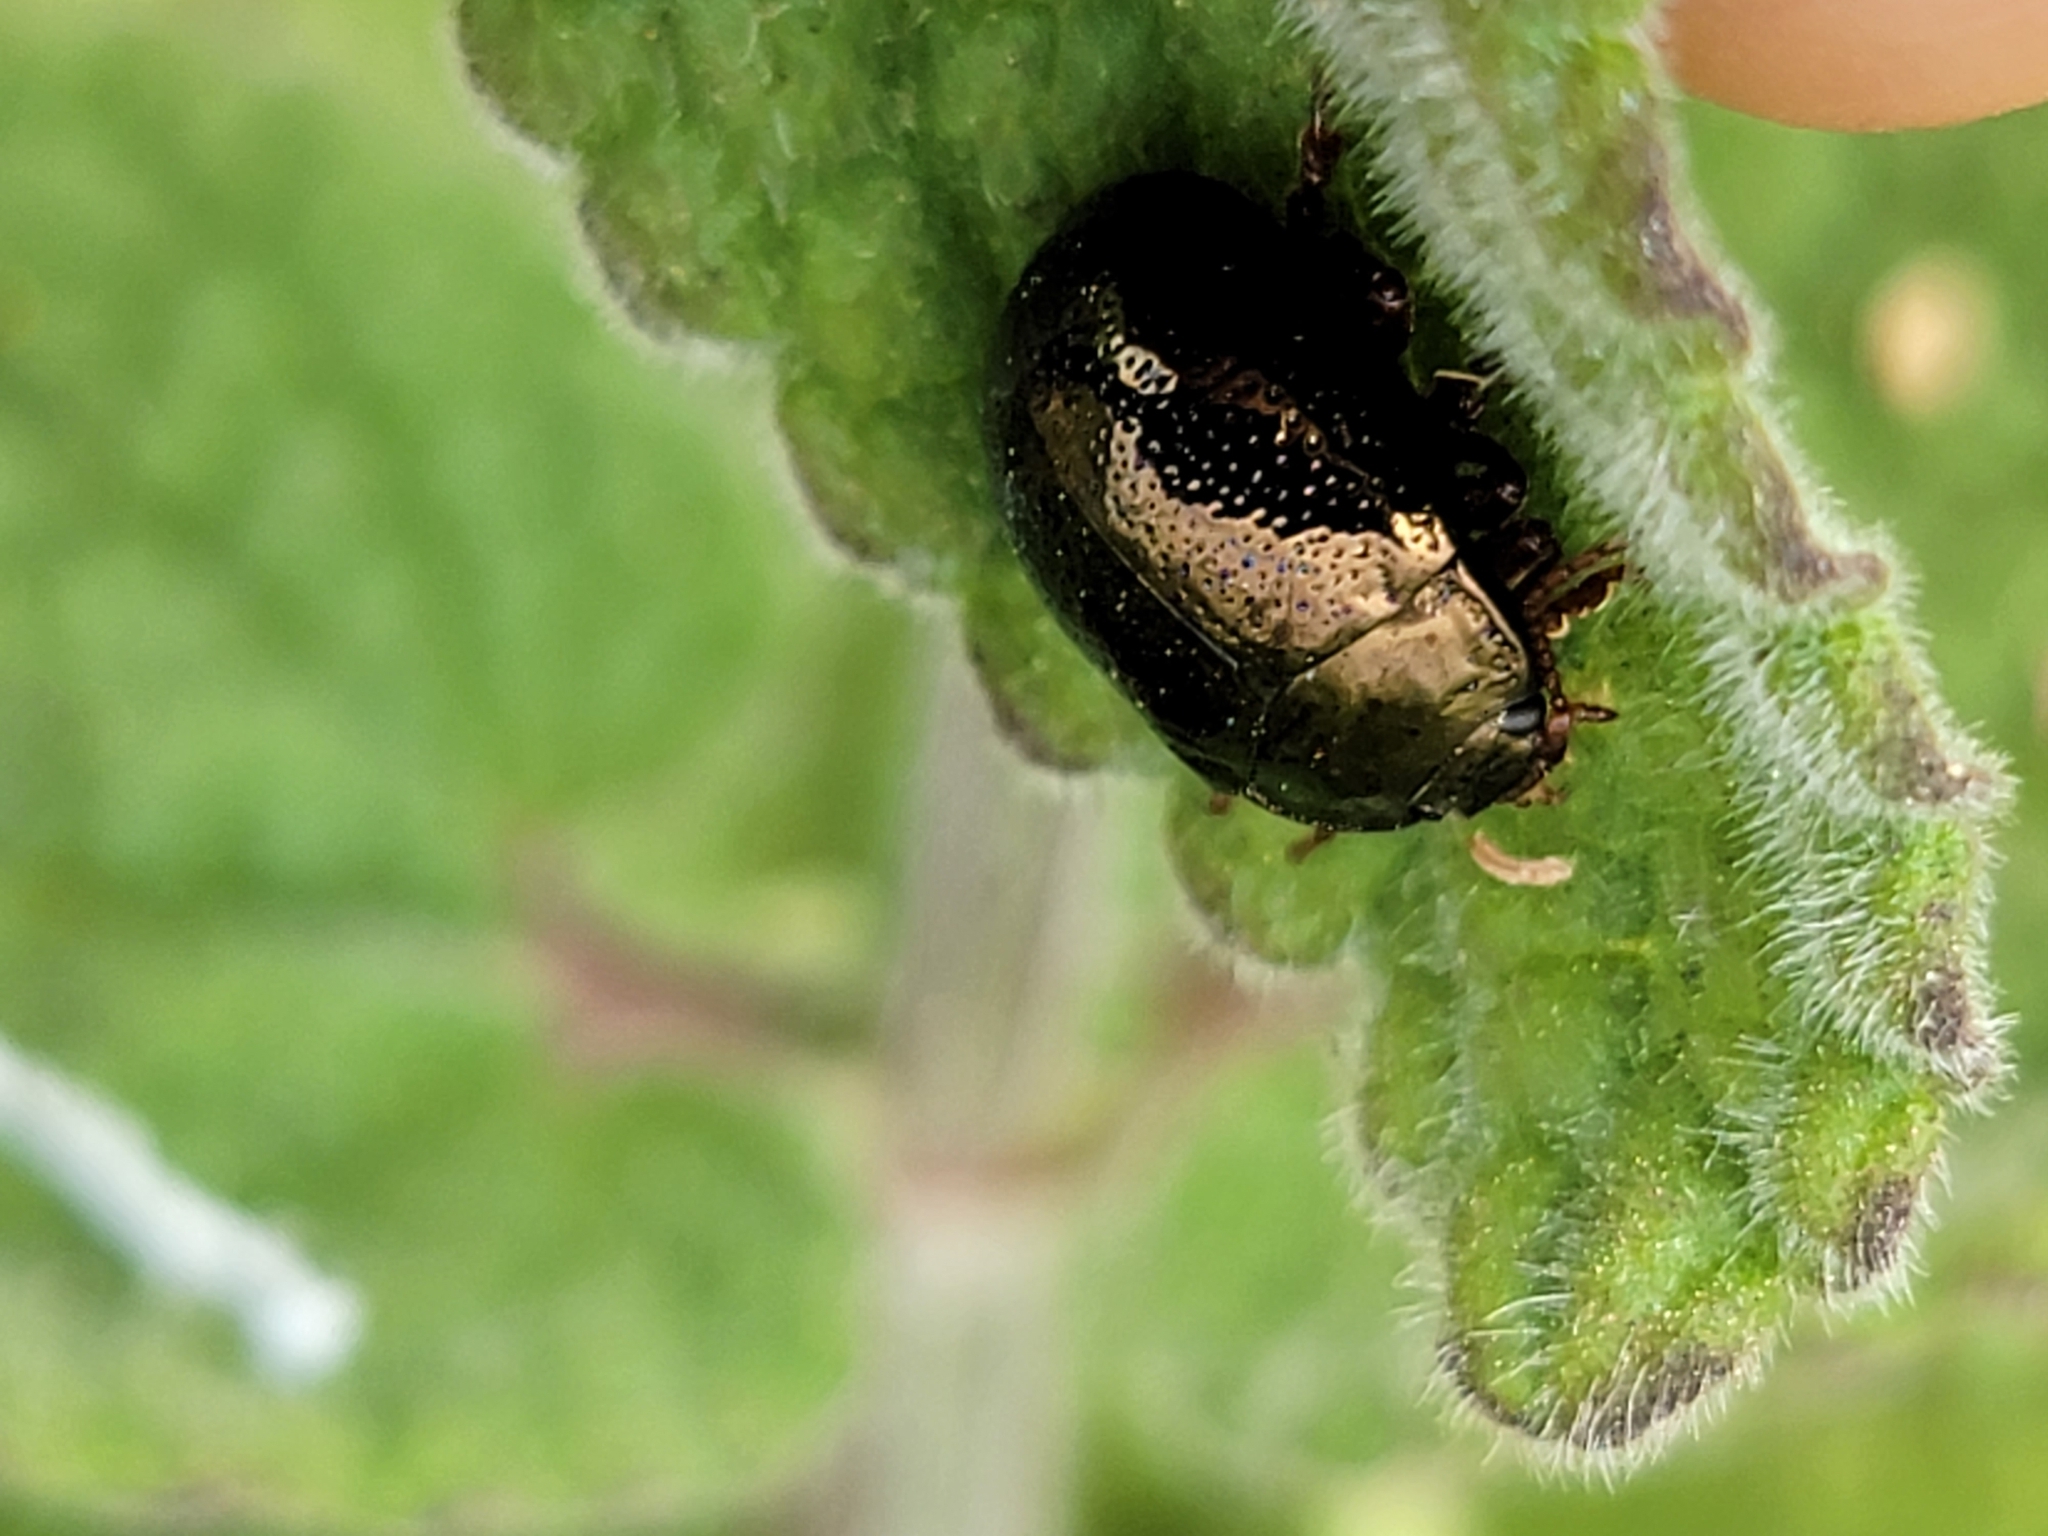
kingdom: Animalia
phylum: Arthropoda
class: Insecta
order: Coleoptera
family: Chrysomelidae
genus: Chrysolina
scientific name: Chrysolina bankii
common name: Leaf beetle
